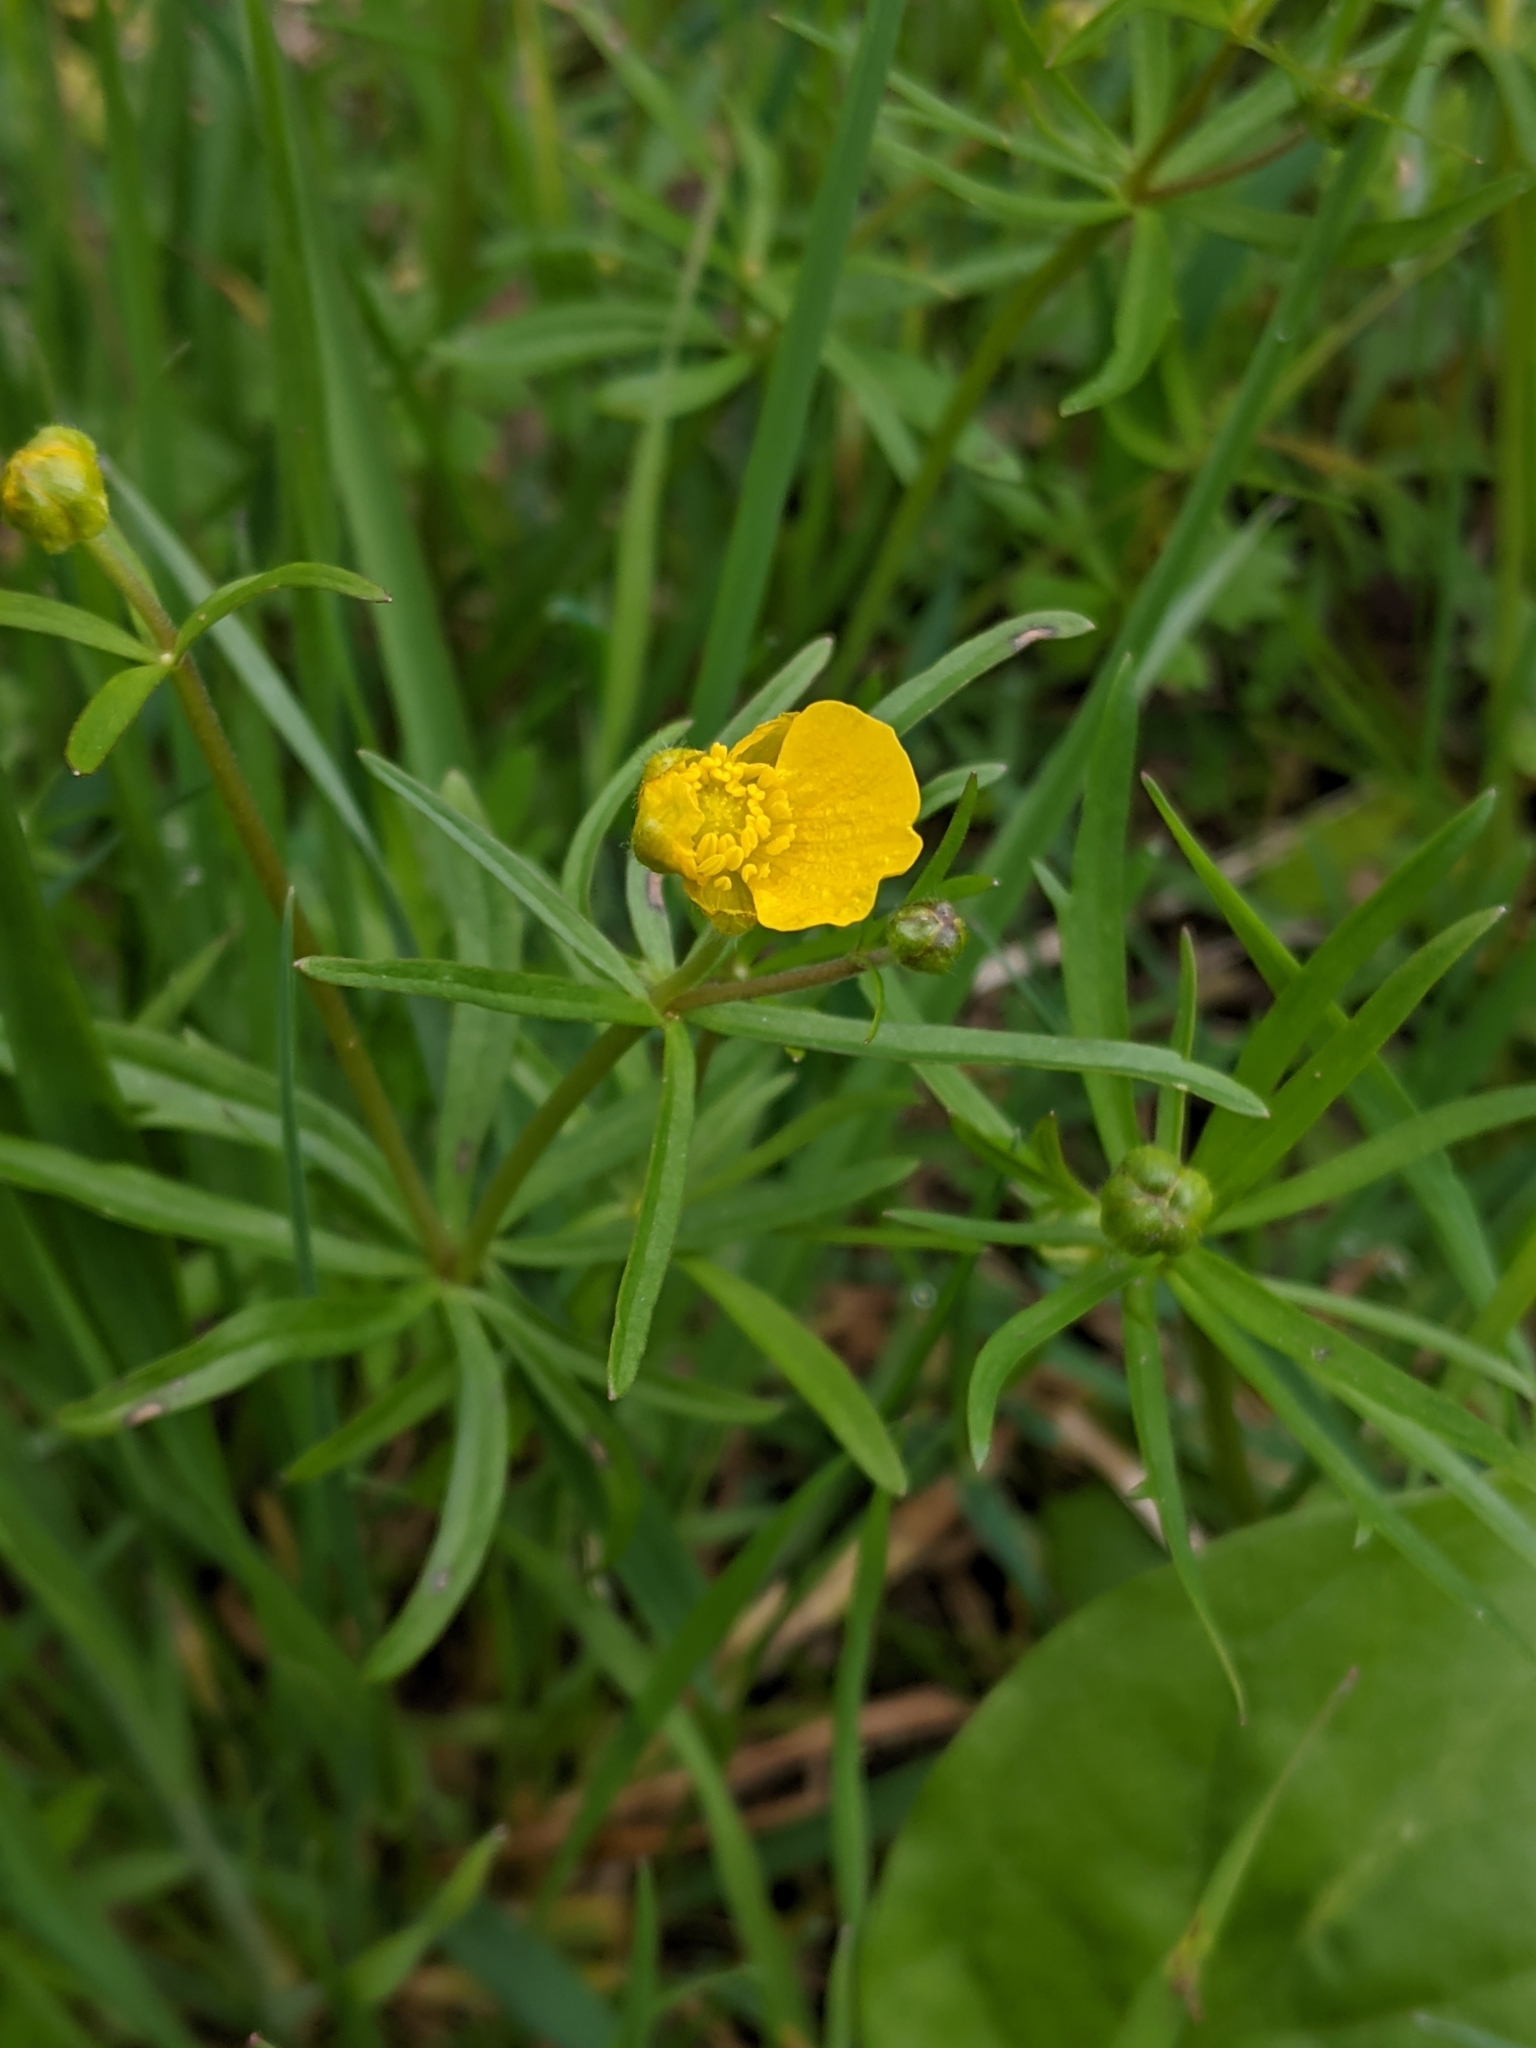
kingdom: Plantae
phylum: Tracheophyta
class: Magnoliopsida
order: Ranunculales
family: Ranunculaceae
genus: Ranunculus
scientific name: Ranunculus auricomus
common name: Goldilocks buttercup
